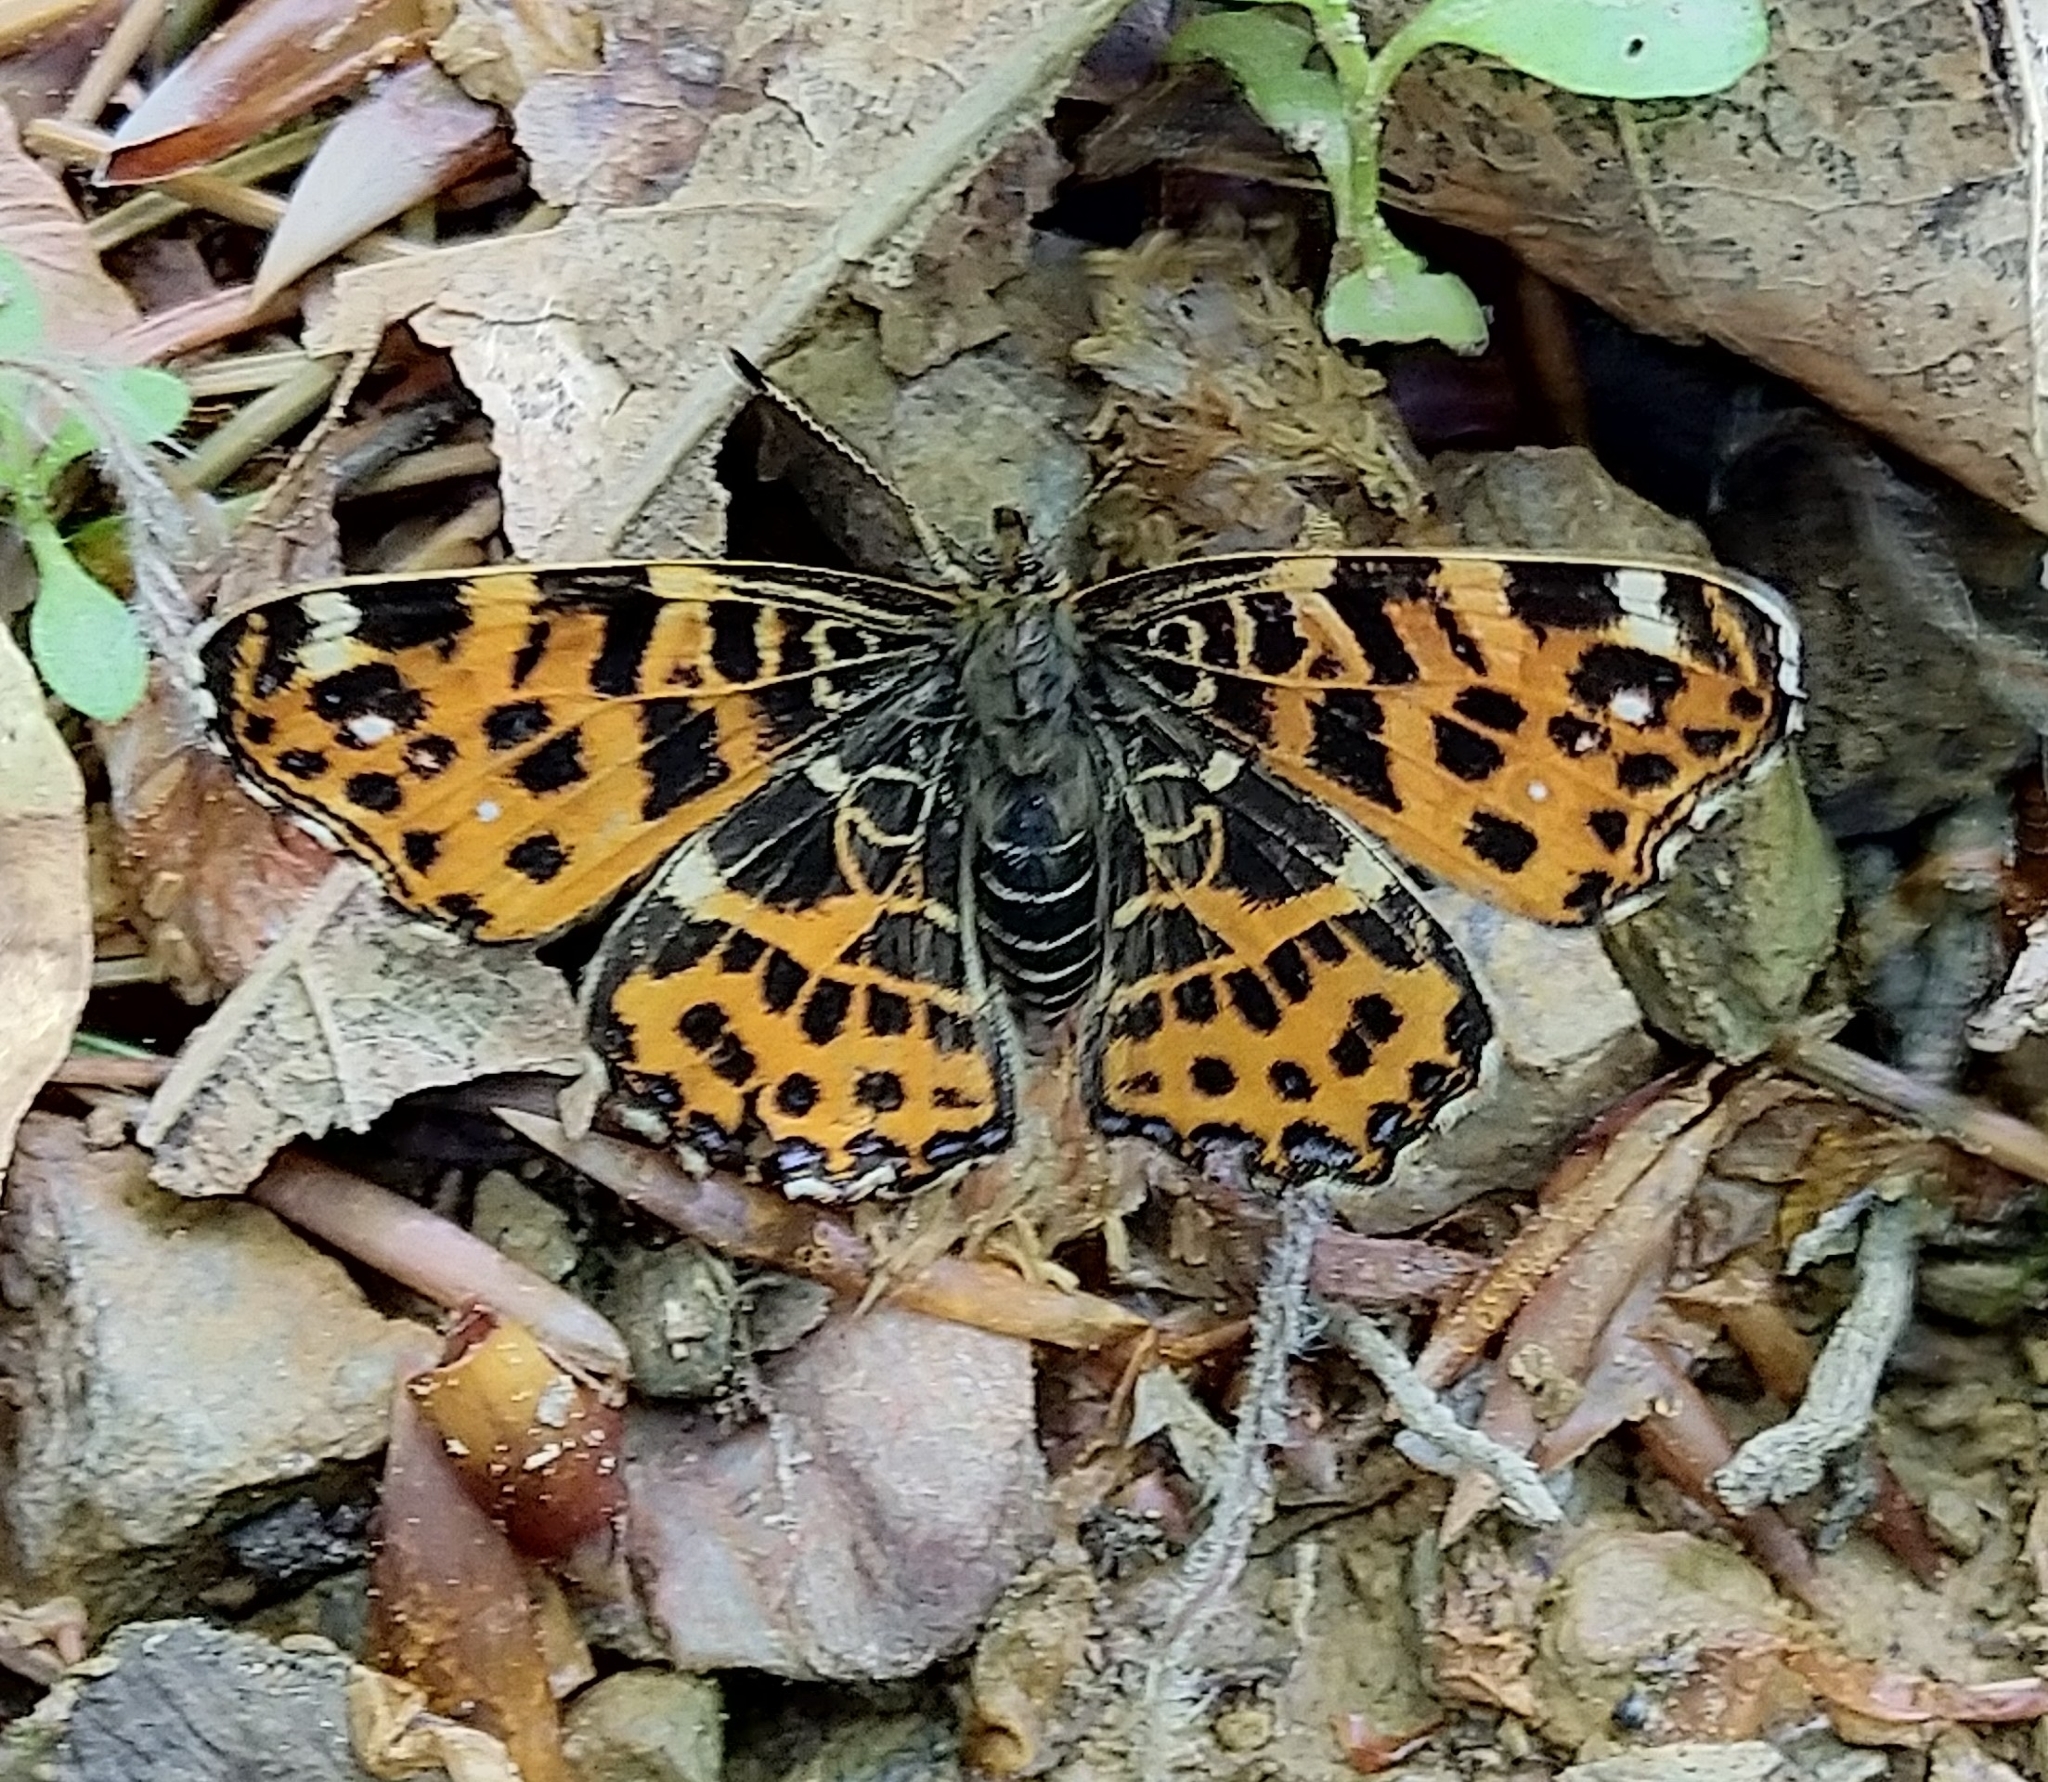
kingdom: Animalia
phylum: Arthropoda
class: Insecta
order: Lepidoptera
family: Nymphalidae
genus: Araschnia
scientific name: Araschnia levana
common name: Map butterfly
